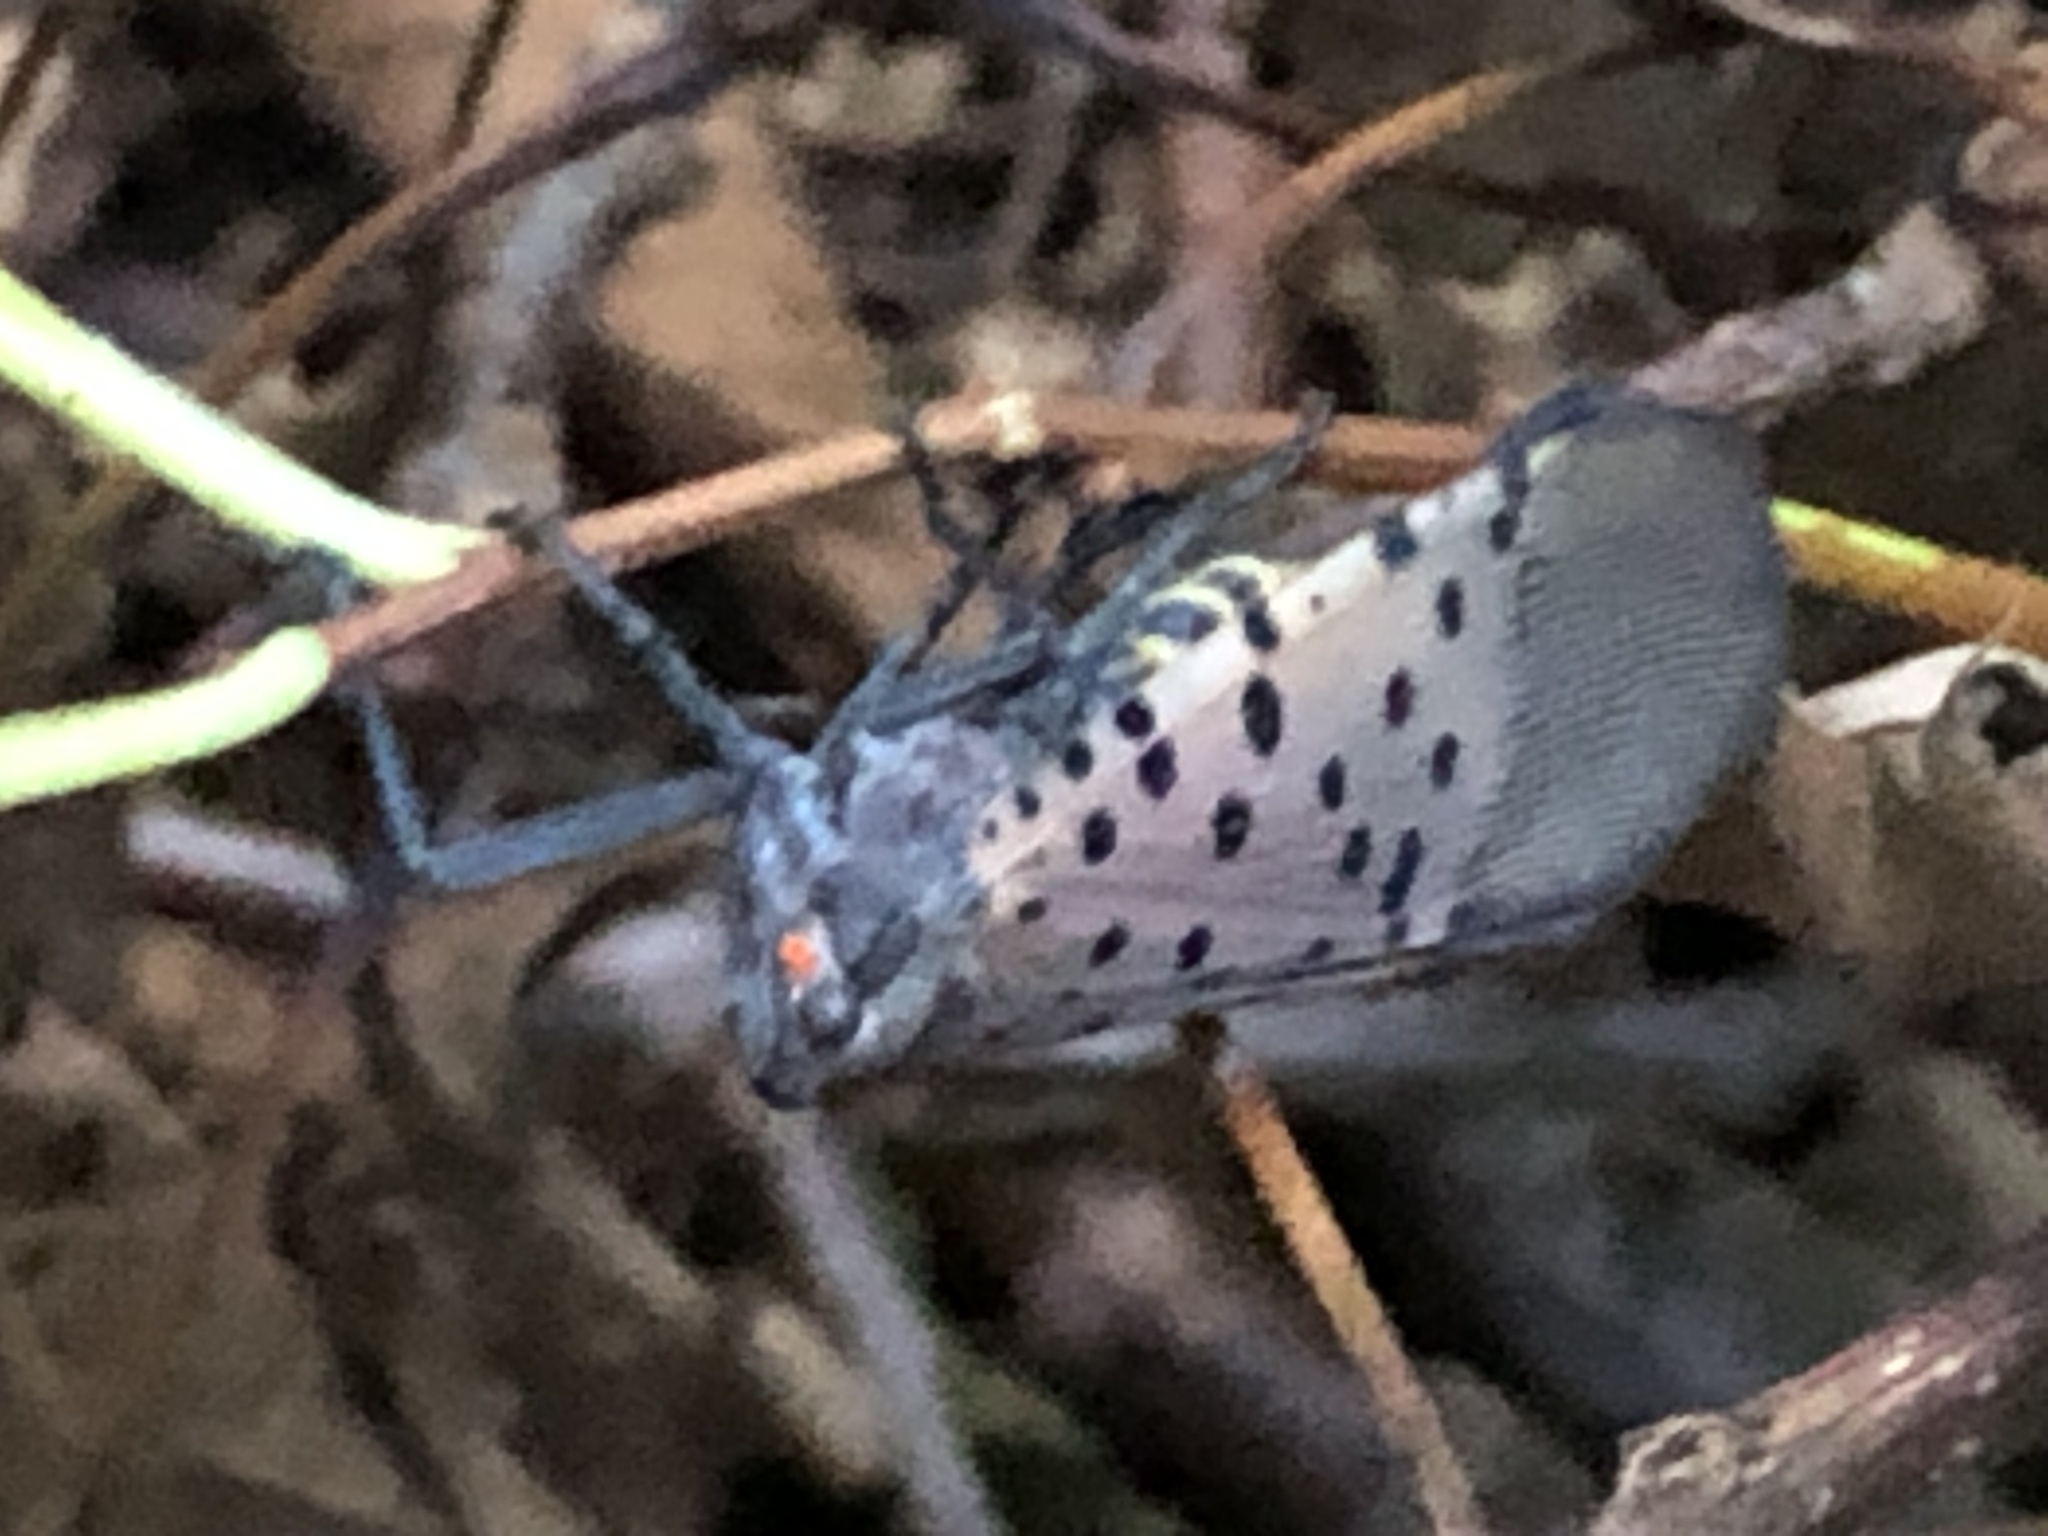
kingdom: Animalia
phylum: Arthropoda
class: Insecta
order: Hemiptera
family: Fulgoridae
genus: Lycorma
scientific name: Lycorma delicatula
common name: Spotted lanternfly
